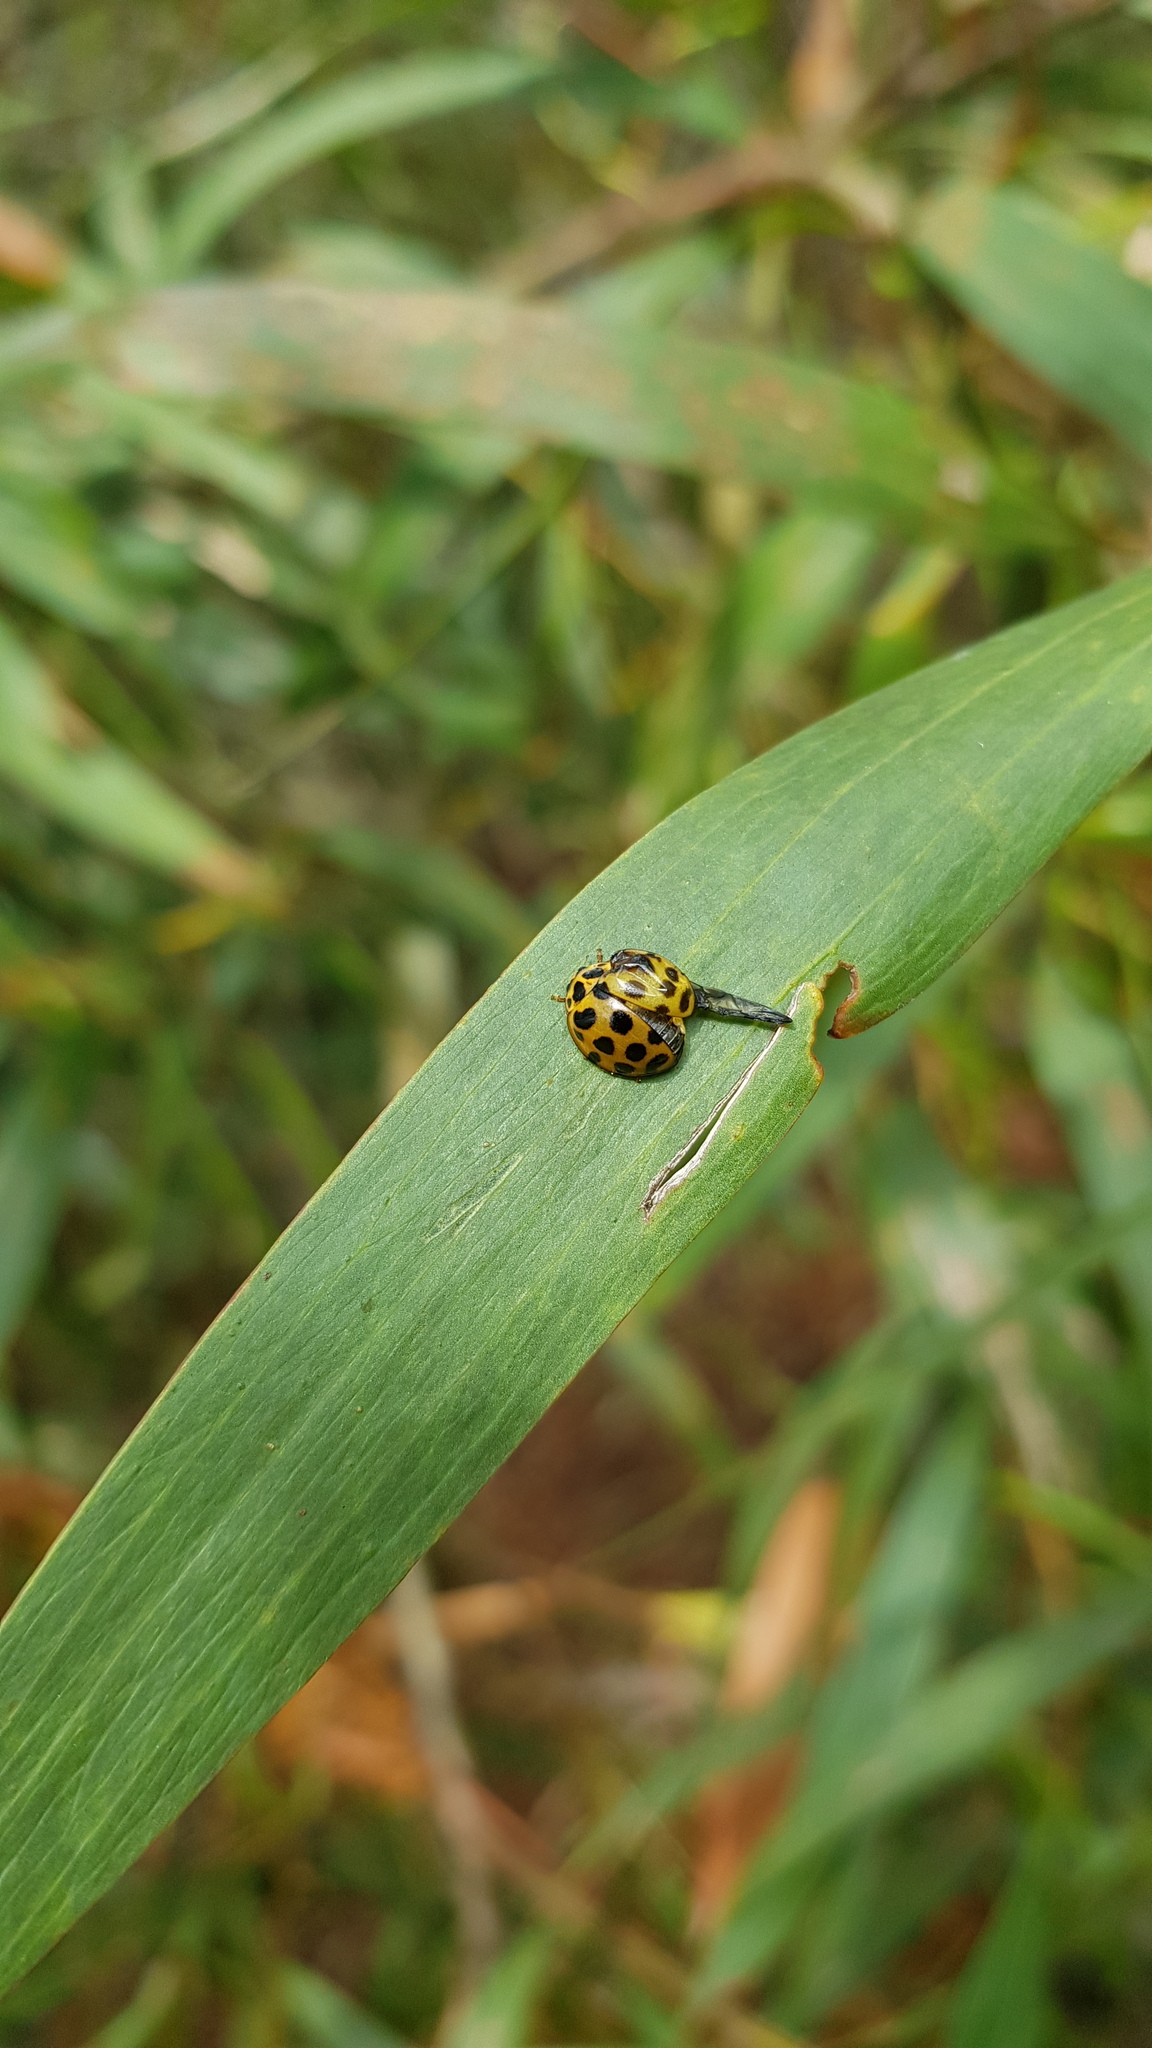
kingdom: Animalia
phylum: Arthropoda
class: Insecta
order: Coleoptera
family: Coccinellidae
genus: Harmonia
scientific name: Harmonia conformis
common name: Common spotted ladybird beetle
